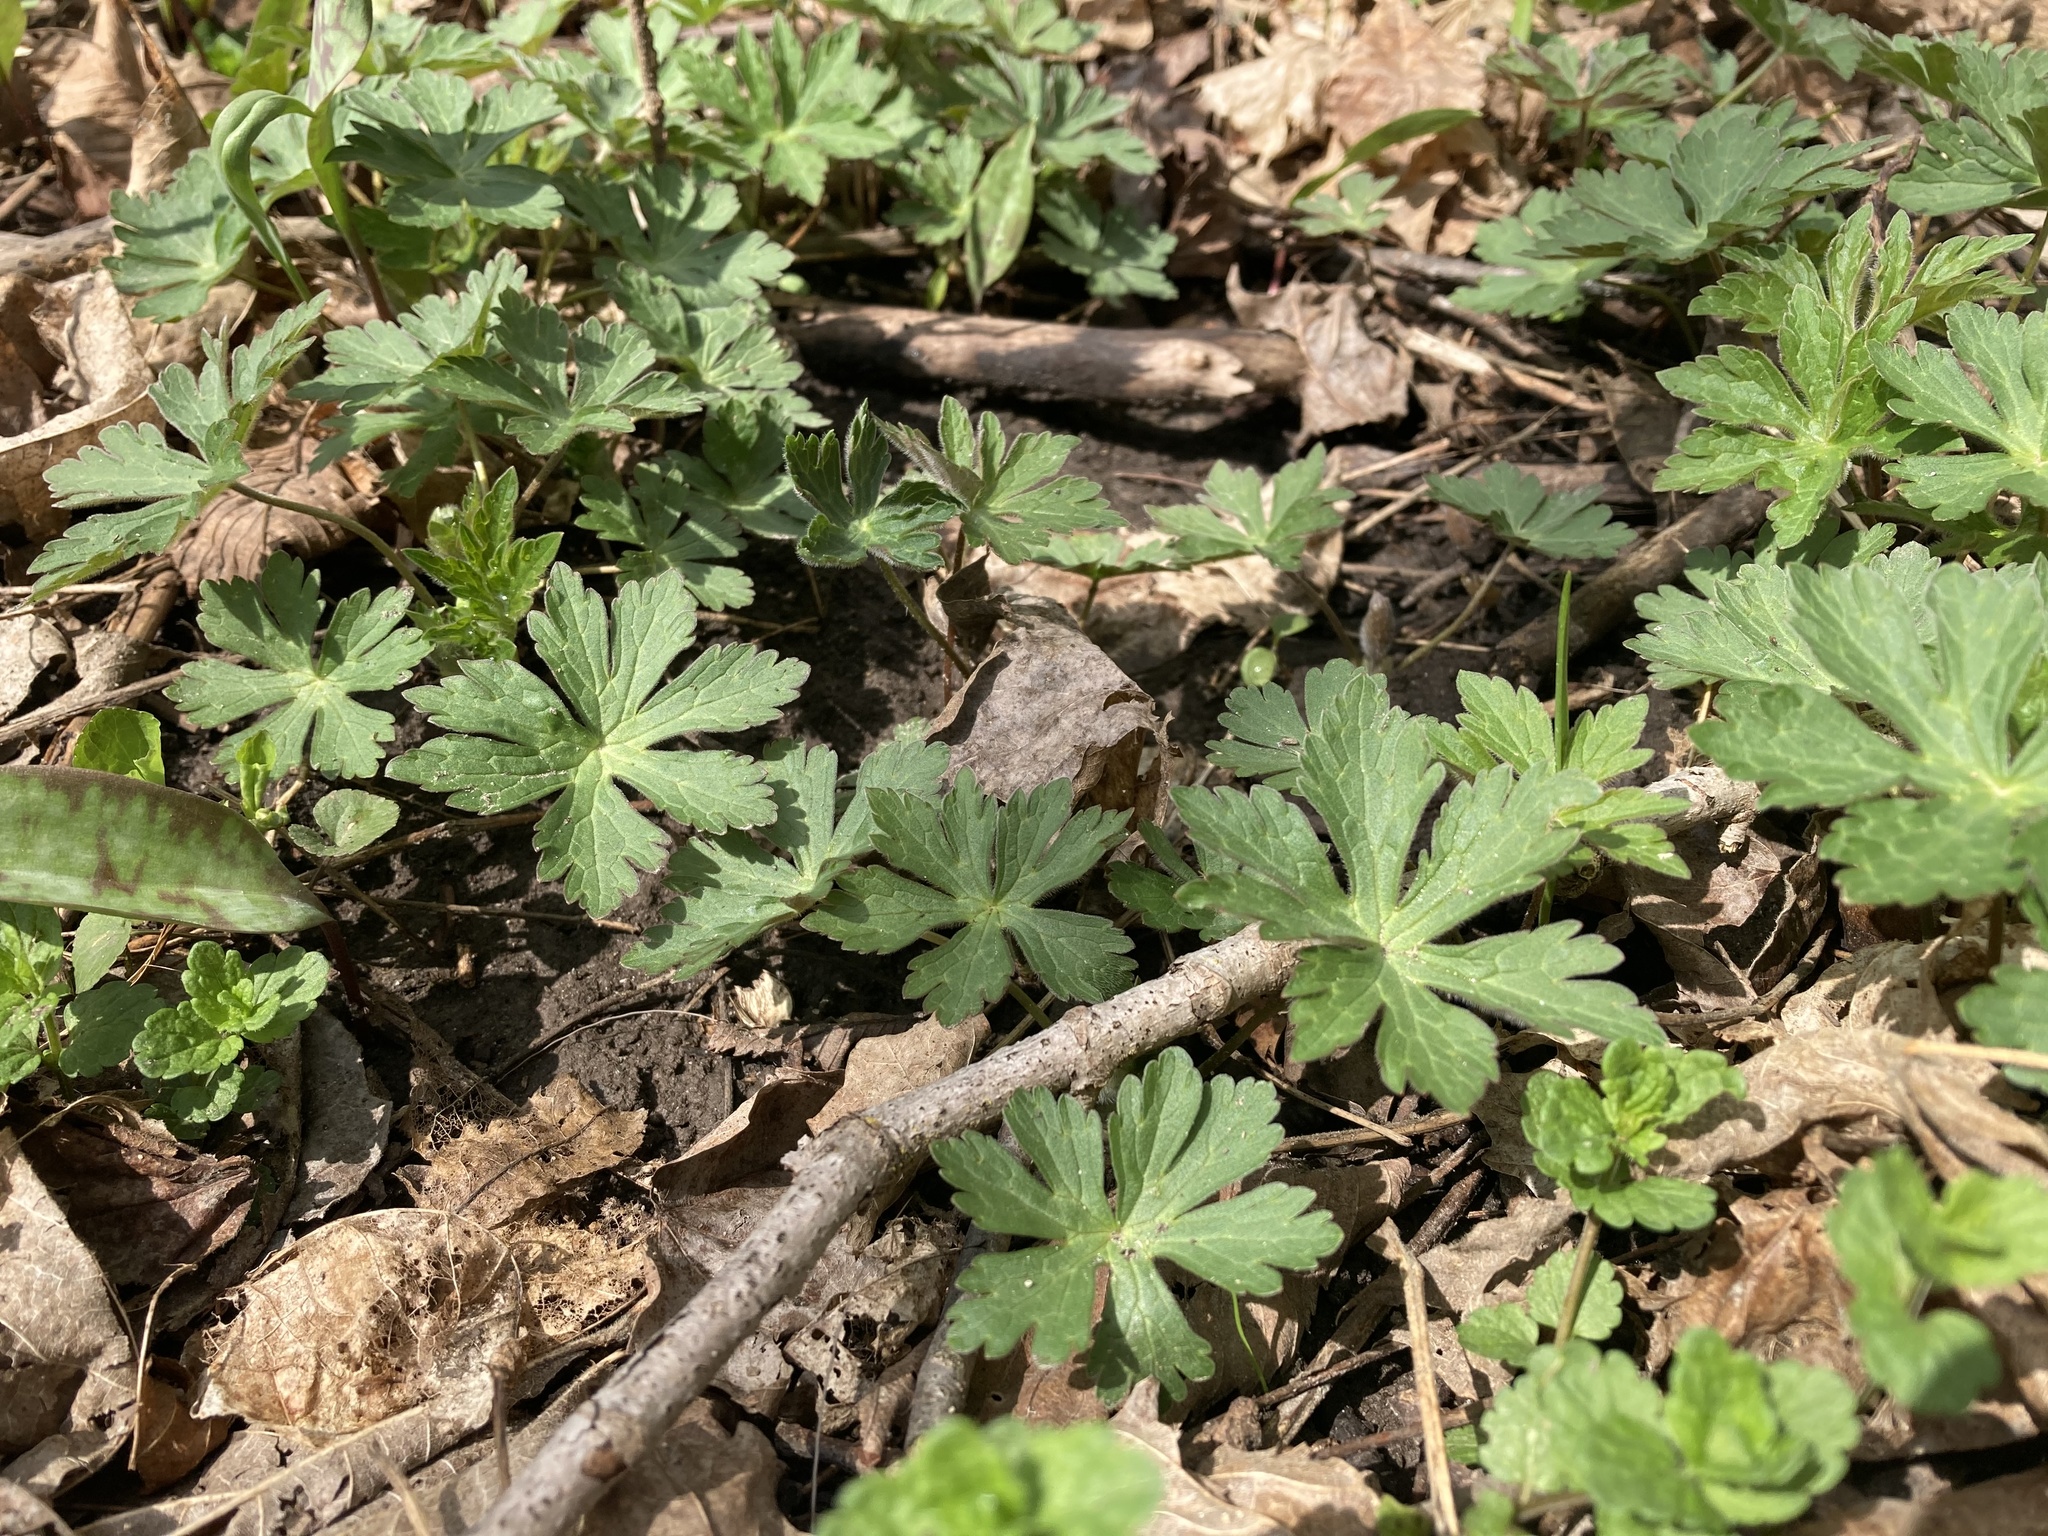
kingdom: Plantae
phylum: Tracheophyta
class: Magnoliopsida
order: Geraniales
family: Geraniaceae
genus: Geranium
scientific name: Geranium maculatum
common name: Spotted geranium
